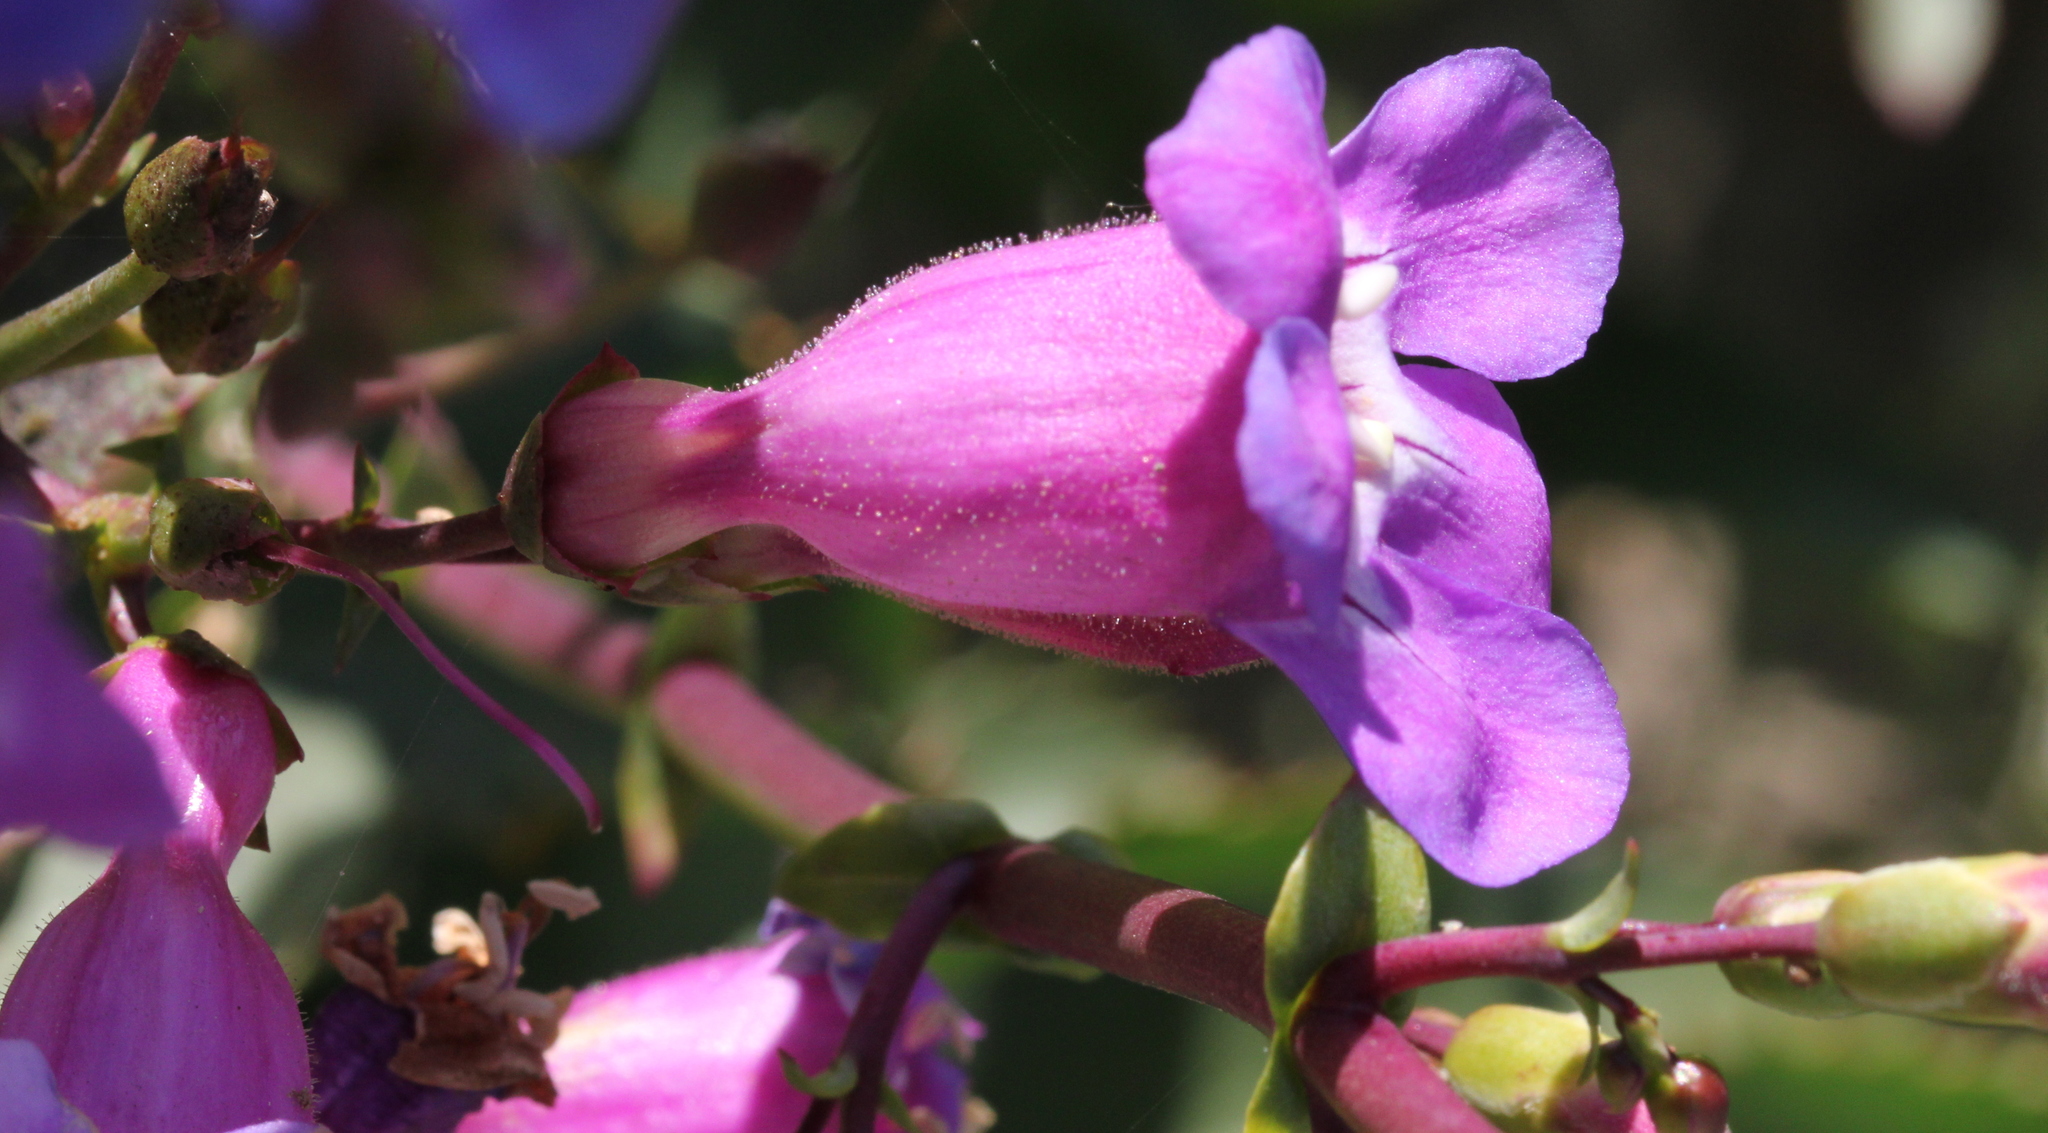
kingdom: Plantae
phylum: Tracheophyta
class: Magnoliopsida
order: Lamiales
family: Plantaginaceae
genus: Penstemon
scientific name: Penstemon spectabilis
